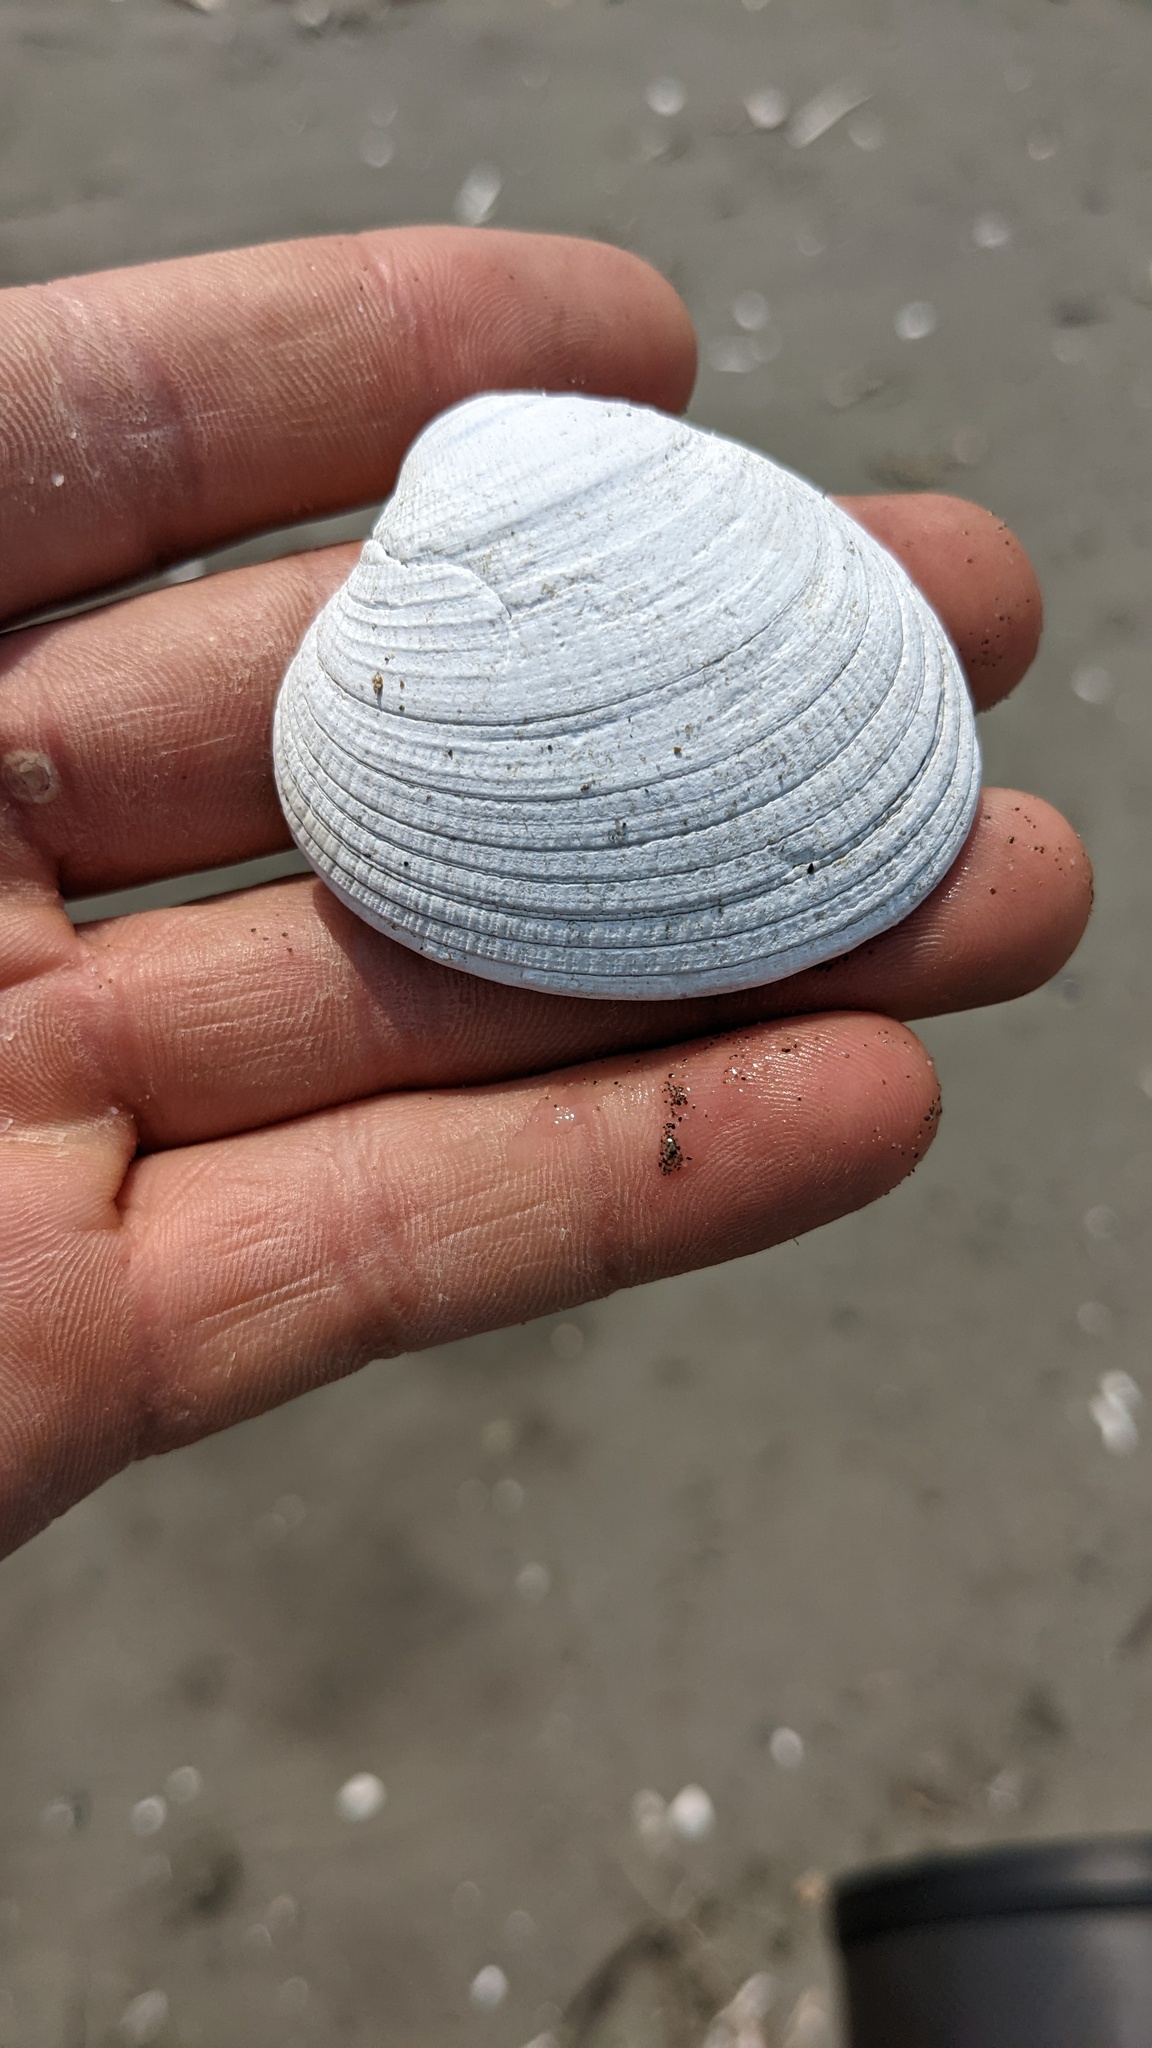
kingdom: Animalia
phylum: Mollusca
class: Bivalvia
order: Venerida
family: Veneridae
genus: Leukoma
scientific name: Leukoma staminea
